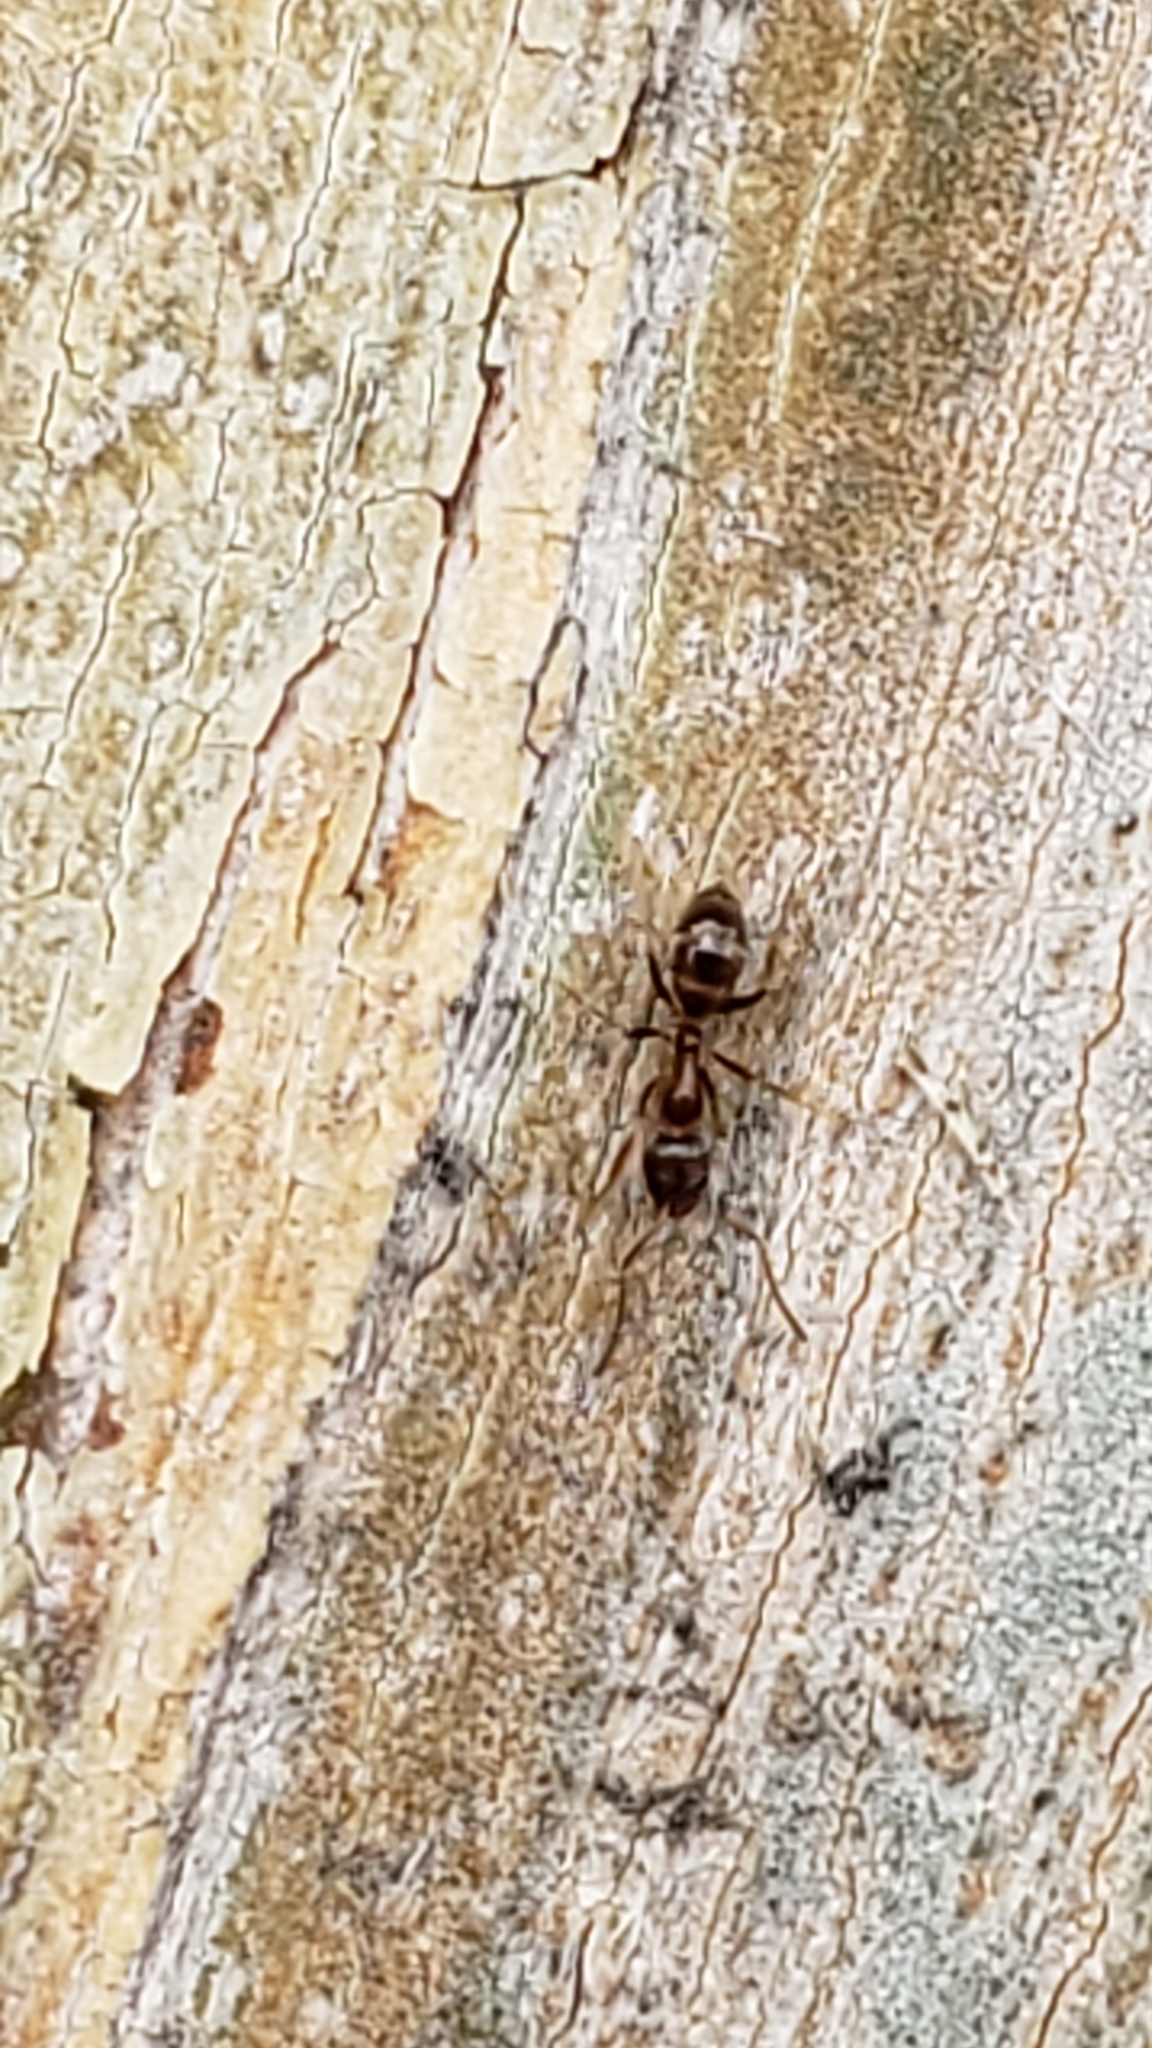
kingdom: Animalia
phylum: Arthropoda
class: Insecta
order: Hymenoptera
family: Formicidae
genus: Linepithema
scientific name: Linepithema humile
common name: Argentine ant
